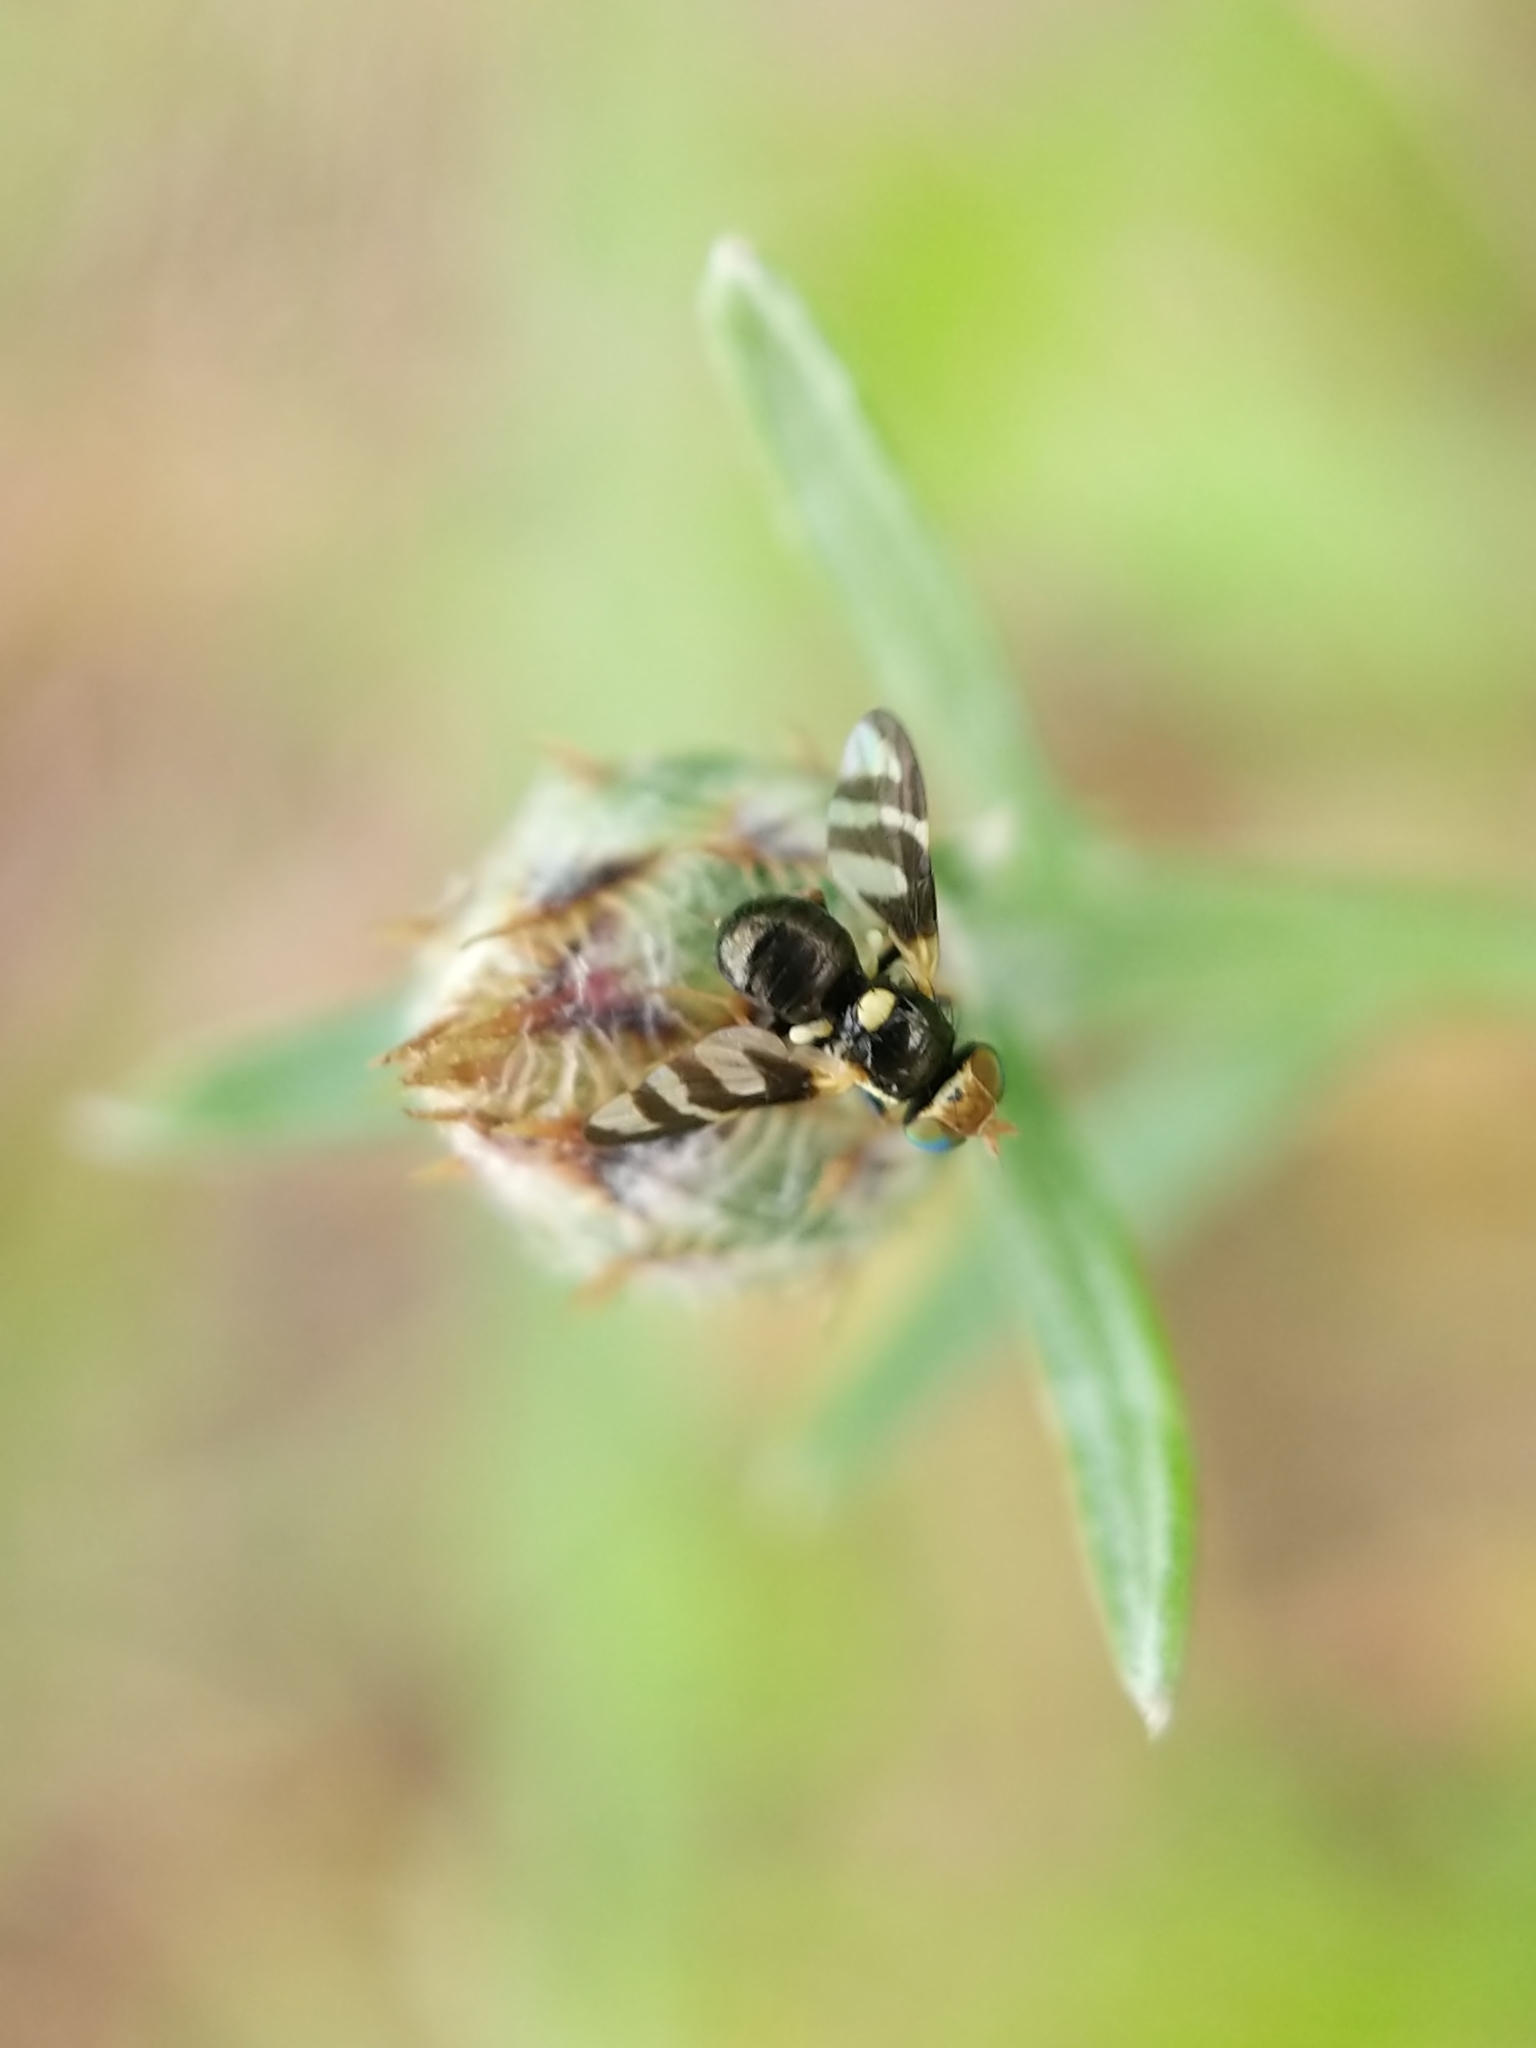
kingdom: Animalia
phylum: Arthropoda
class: Insecta
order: Diptera
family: Tephritidae
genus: Urophora
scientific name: Urophora quadrifasciata
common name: Knapweed seedhead fly
